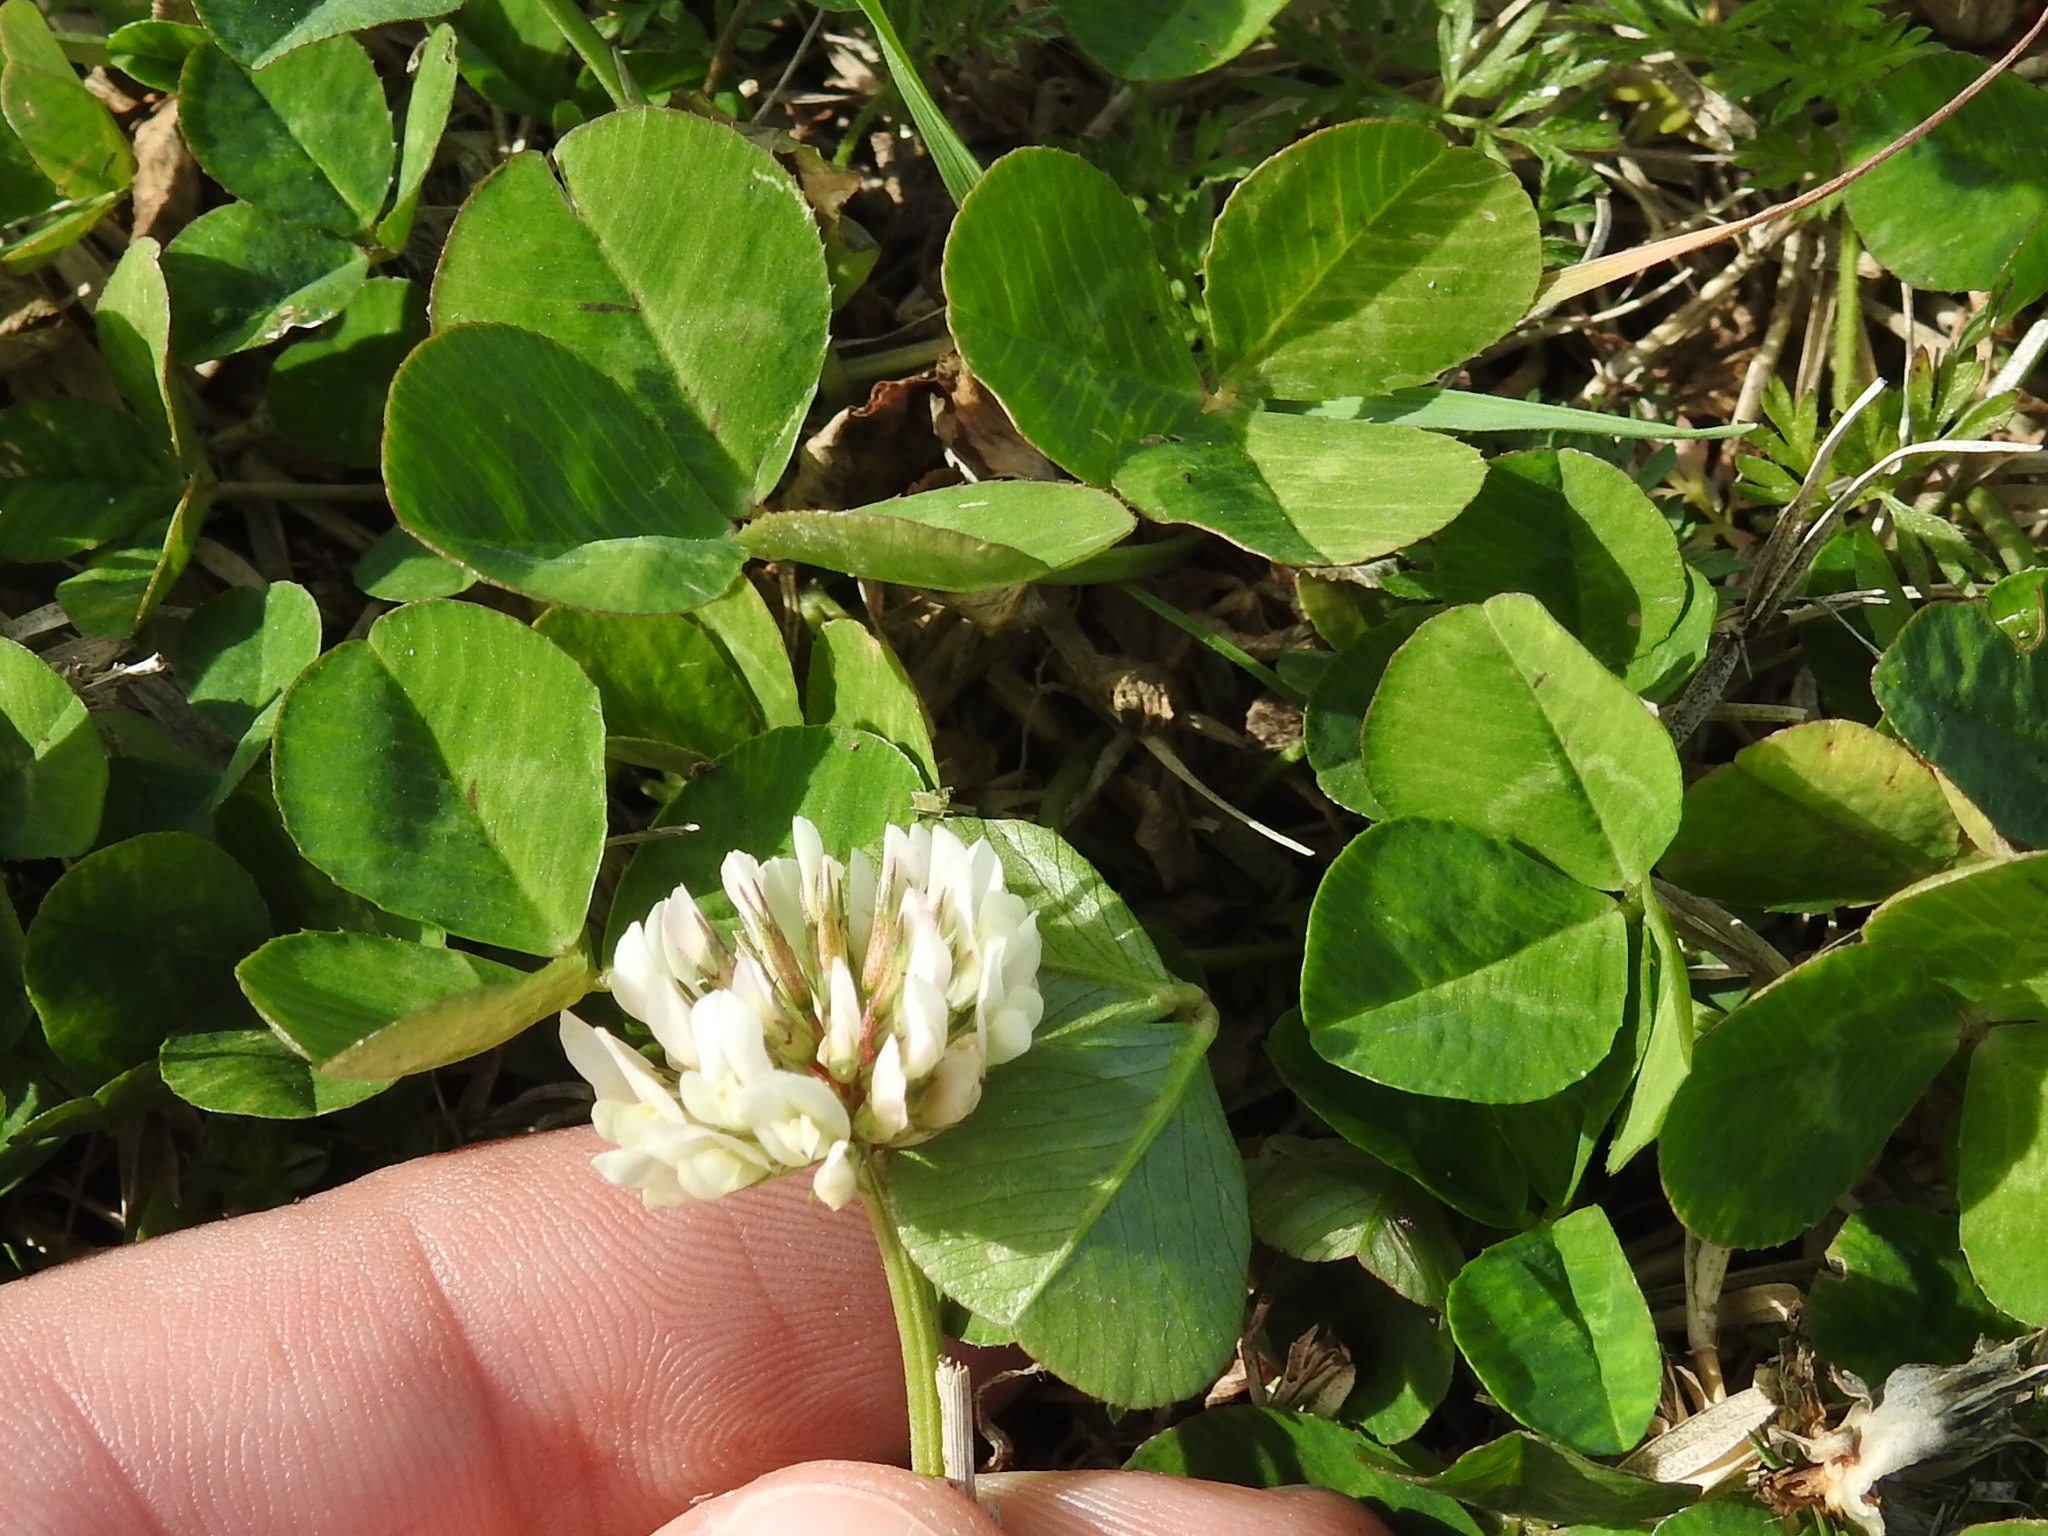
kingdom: Plantae
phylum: Tracheophyta
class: Magnoliopsida
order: Fabales
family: Fabaceae
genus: Trifolium
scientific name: Trifolium repens
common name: White clover
